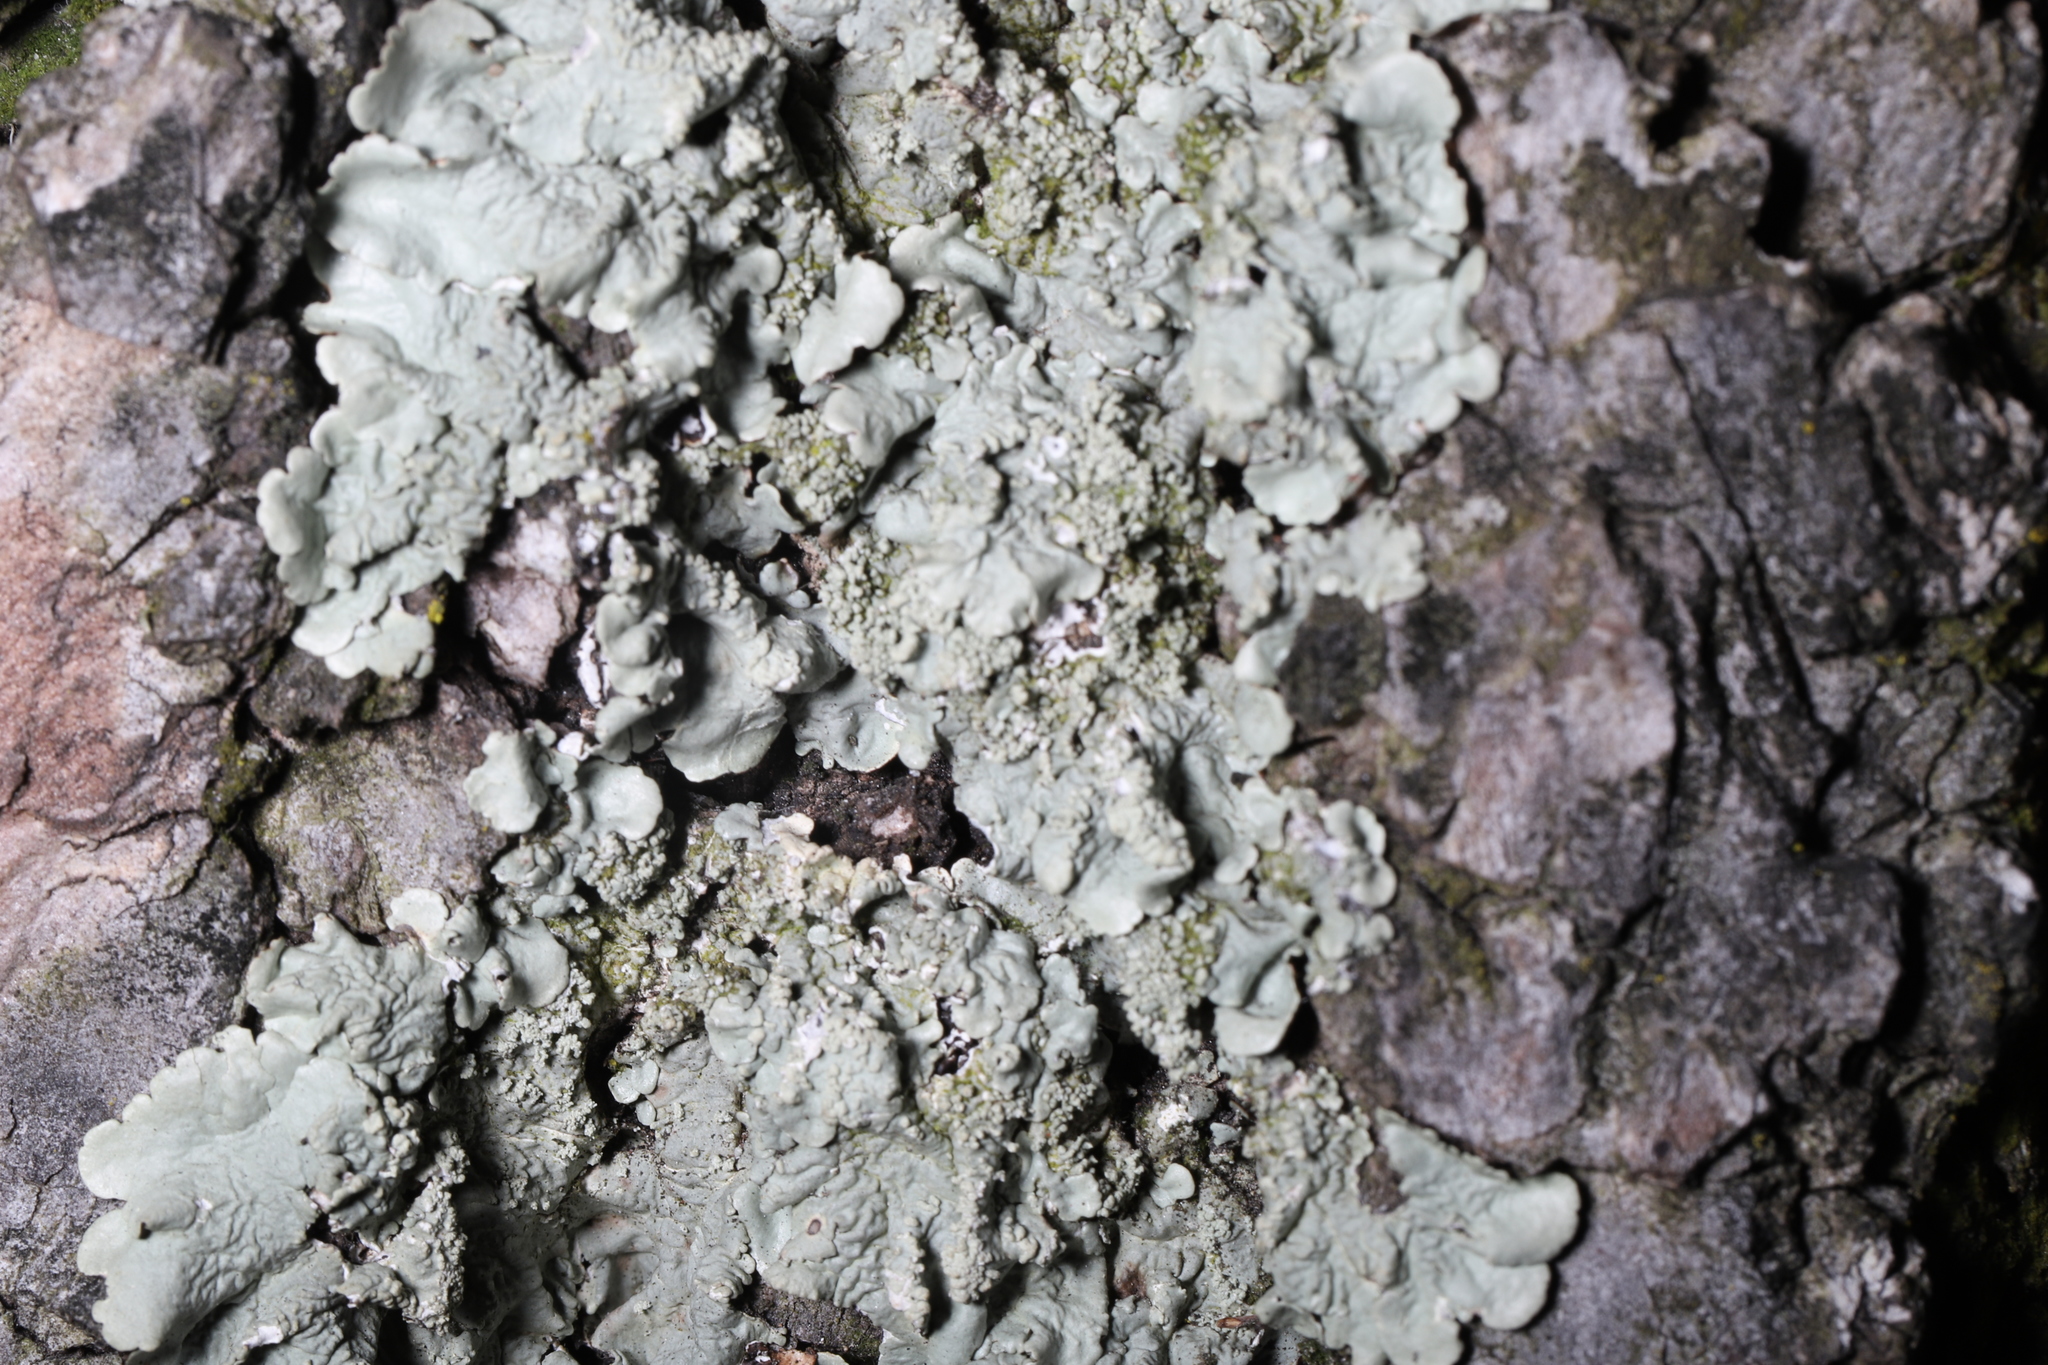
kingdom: Fungi
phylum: Ascomycota
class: Lecanoromycetes
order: Lecanorales
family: Parmeliaceae
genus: Flavoparmelia
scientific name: Flavoparmelia caperata
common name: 40-mile per hour lichen
